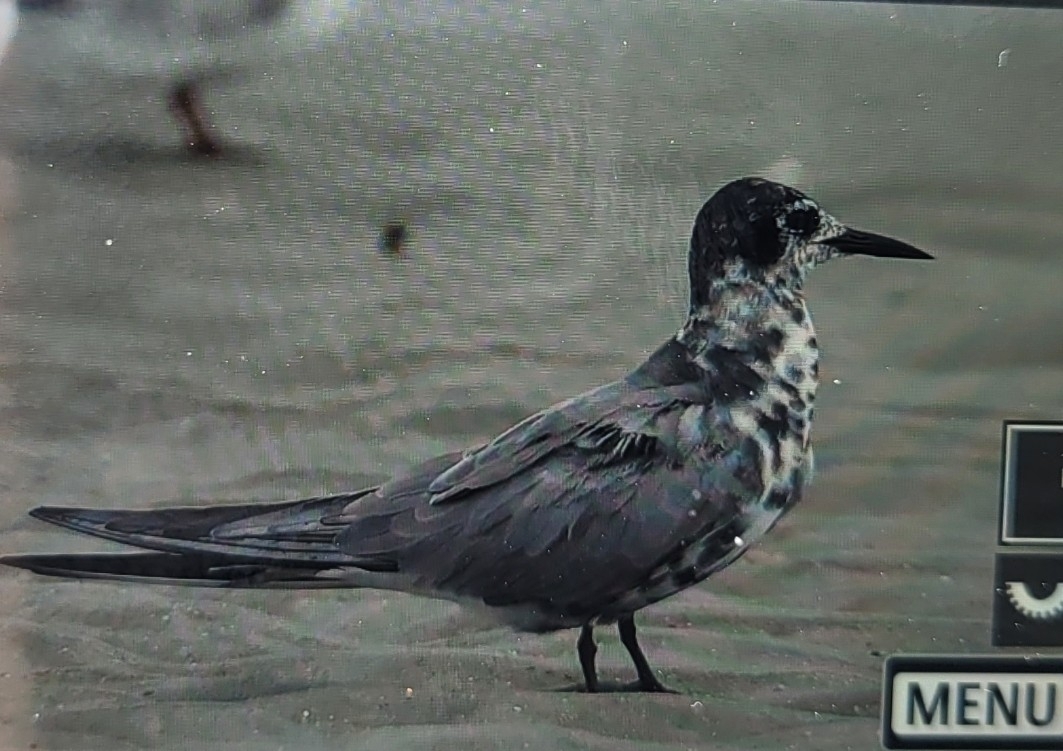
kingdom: Animalia
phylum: Chordata
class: Aves
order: Charadriiformes
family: Laridae
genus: Chlidonias
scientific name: Chlidonias niger
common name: Black tern
